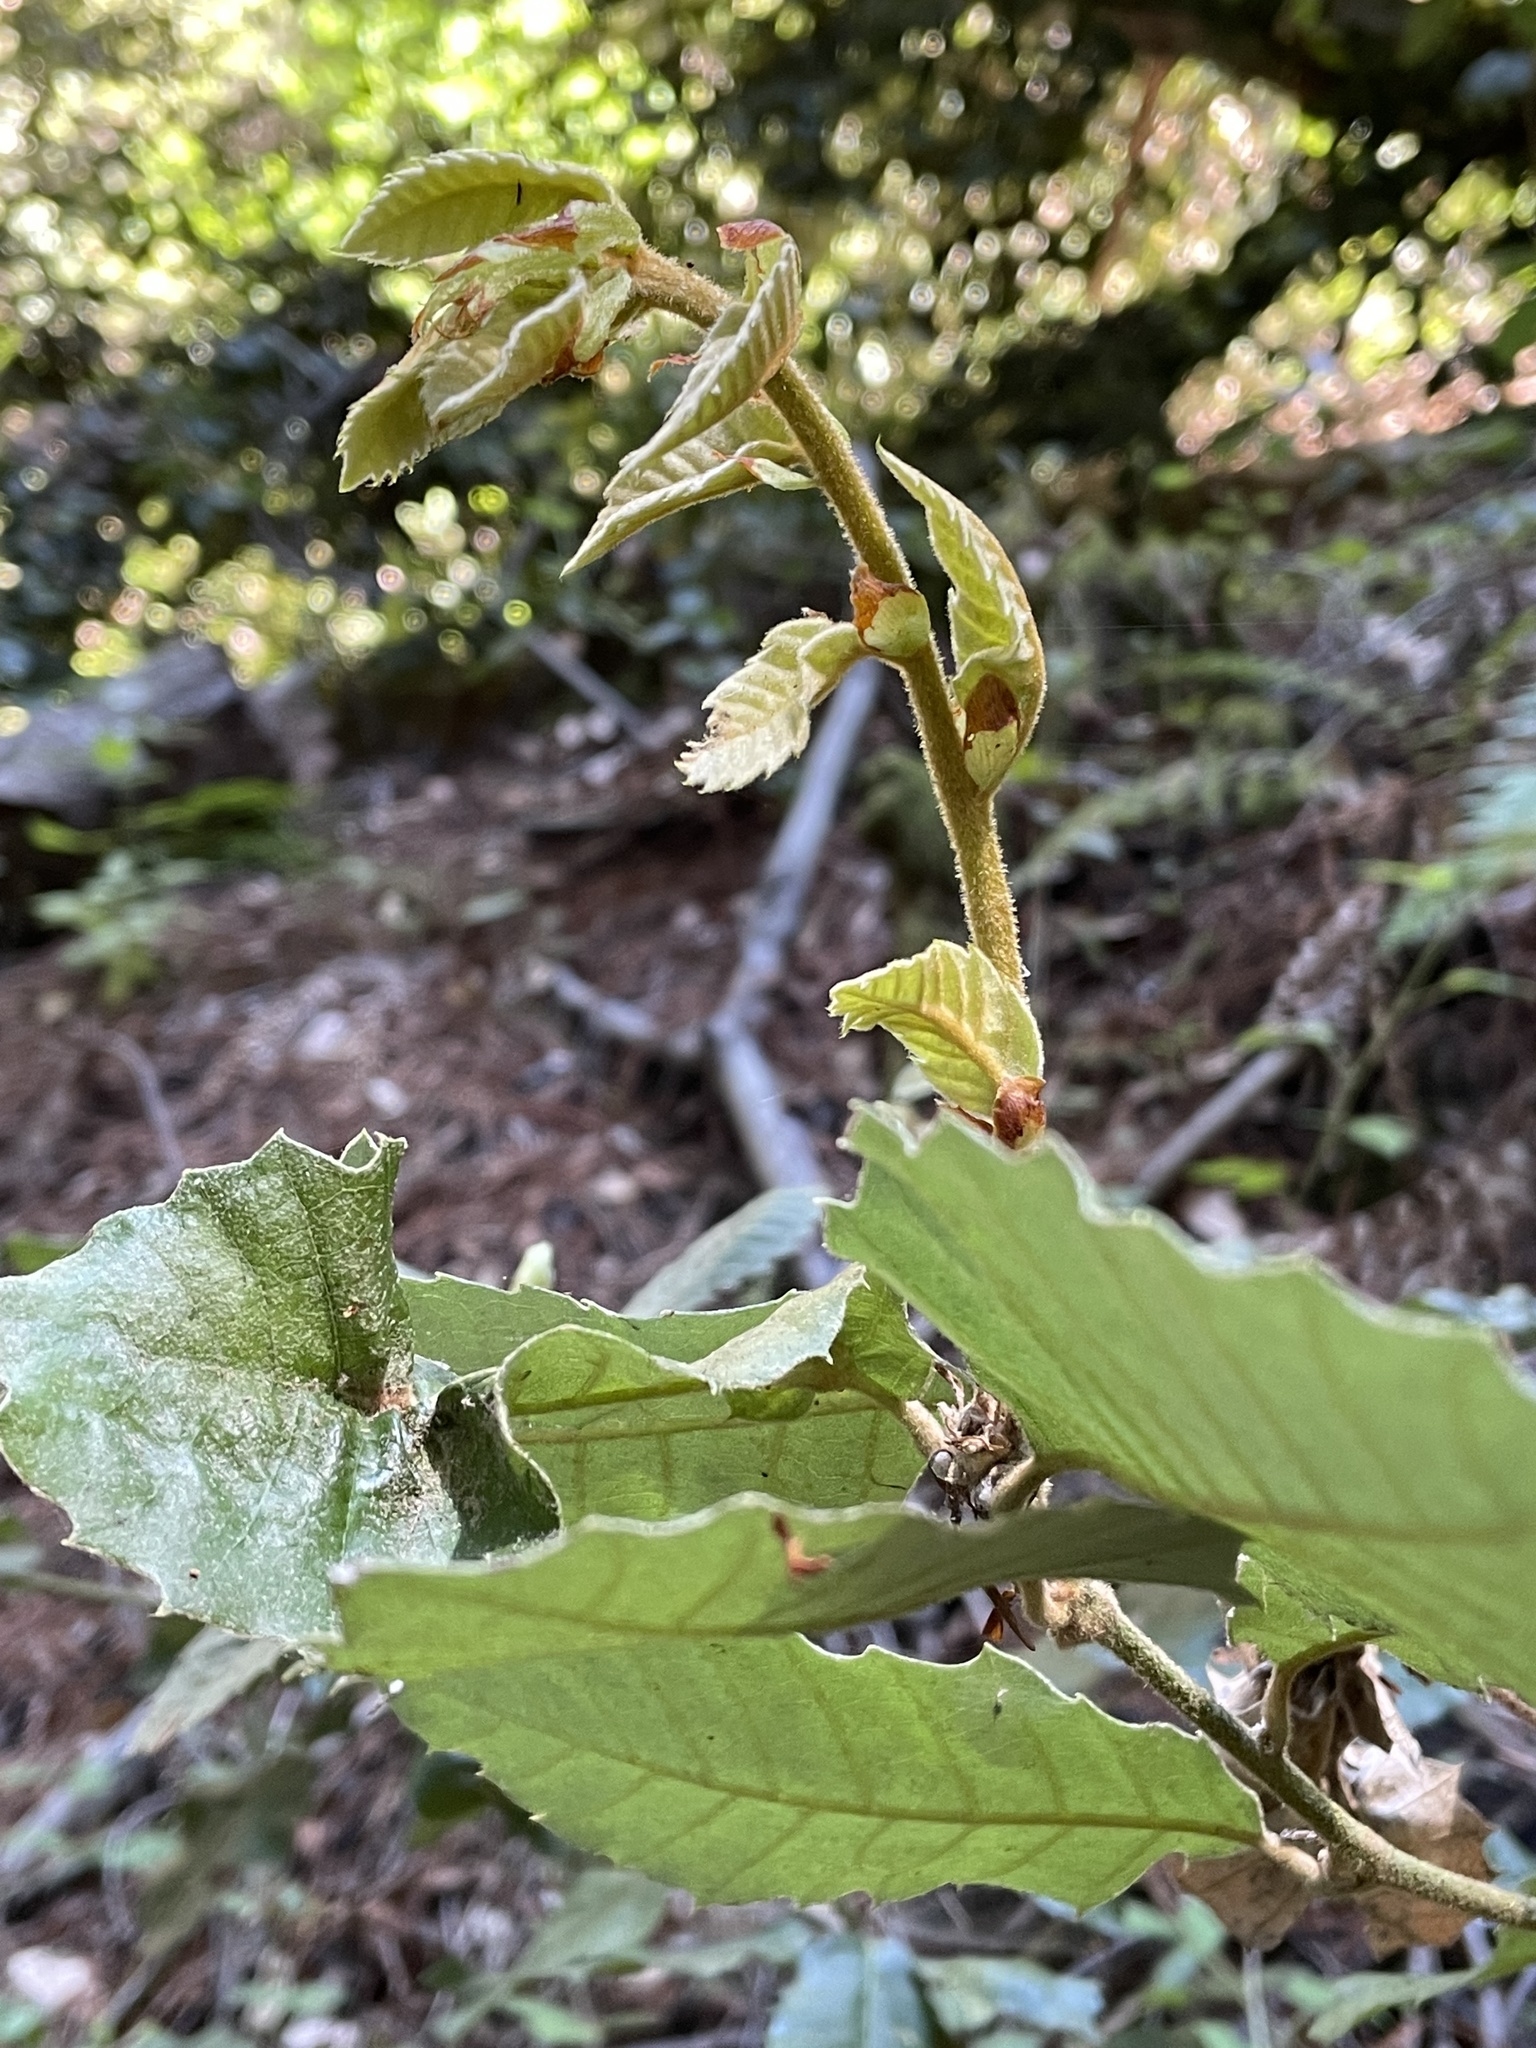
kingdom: Plantae
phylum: Tracheophyta
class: Magnoliopsida
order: Fagales
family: Fagaceae
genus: Notholithocarpus
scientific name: Notholithocarpus densiflorus
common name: Tan bark oak
